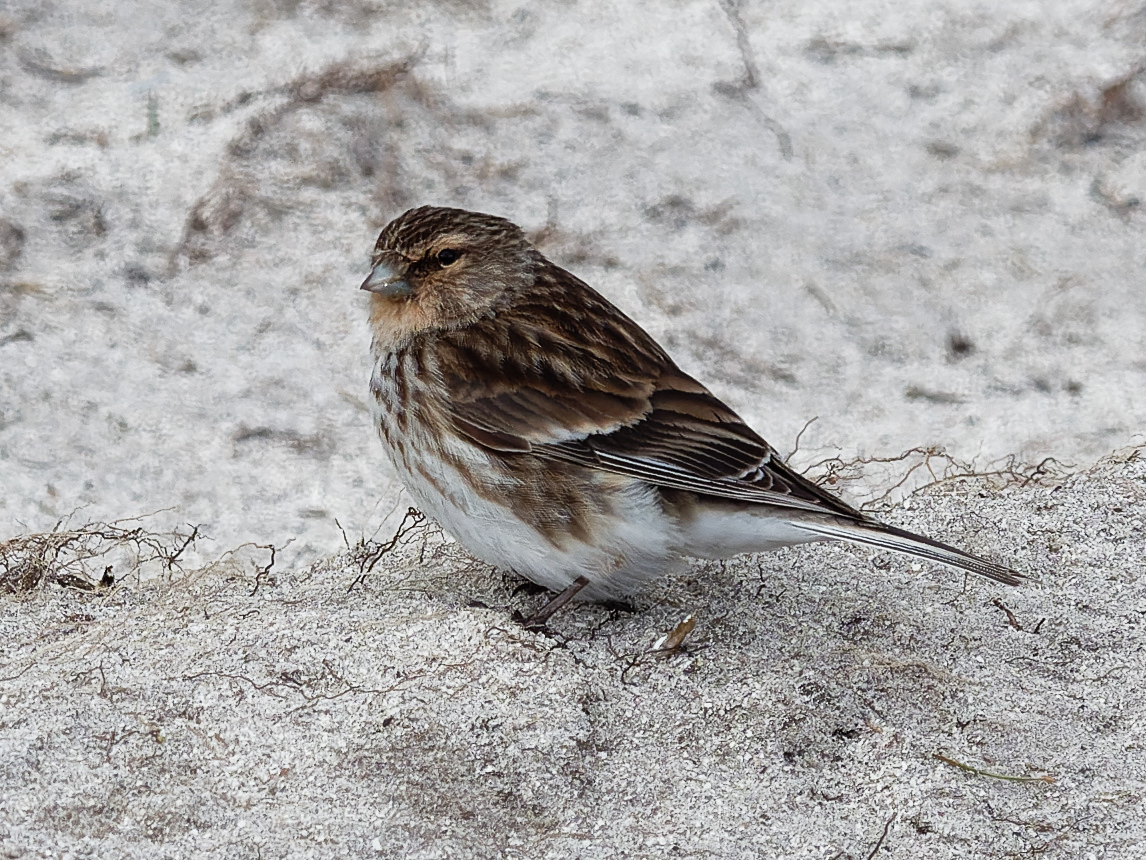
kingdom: Animalia
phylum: Chordata
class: Aves
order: Passeriformes
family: Fringillidae
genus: Linaria
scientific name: Linaria flavirostris
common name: Twite
